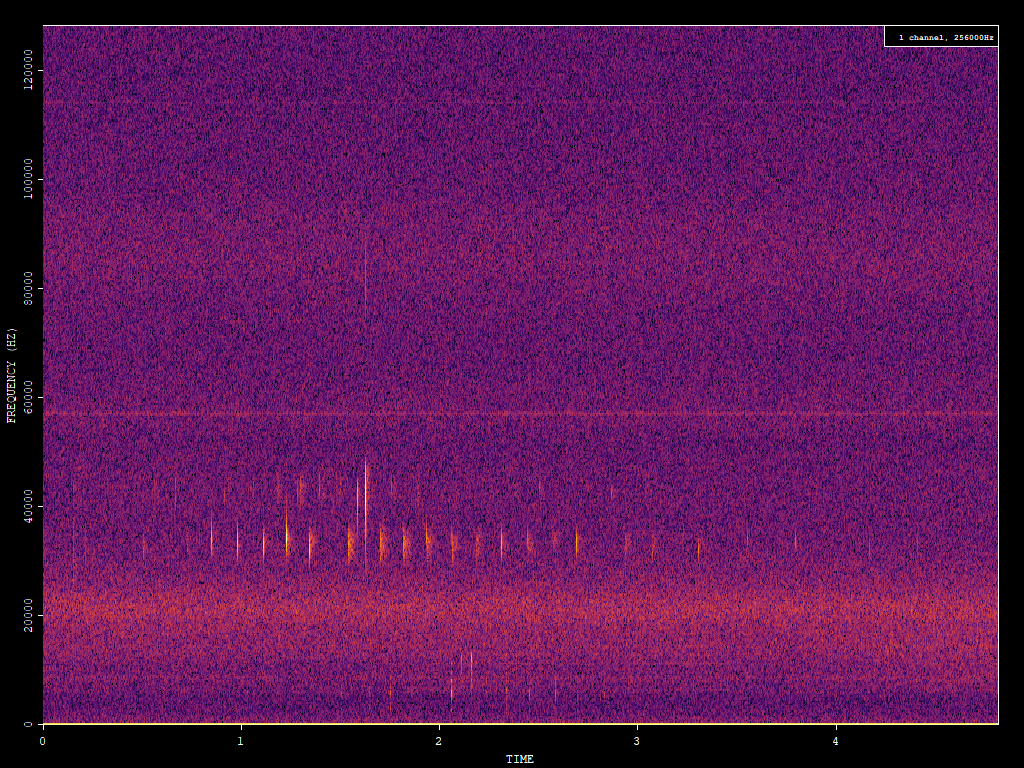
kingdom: Animalia
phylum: Chordata
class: Mammalia
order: Chiroptera
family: Vespertilionidae
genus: Barbastella
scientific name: Barbastella barbastellus
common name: Western barbastelle
